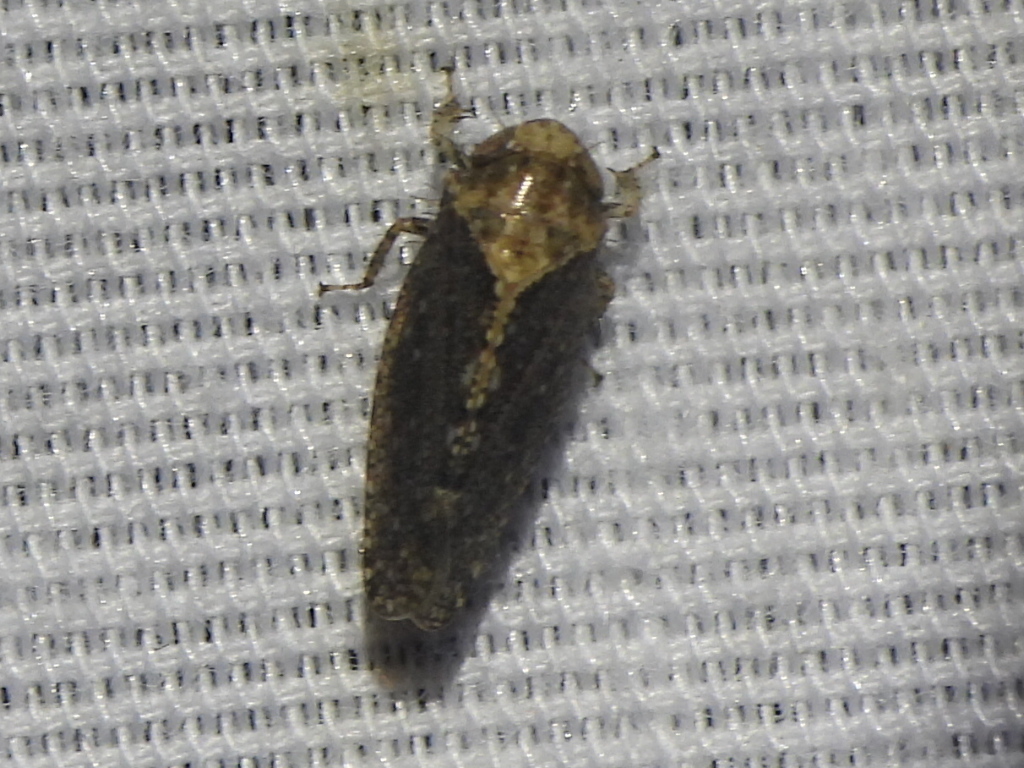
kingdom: Animalia
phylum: Arthropoda
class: Insecta
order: Hemiptera
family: Cicadellidae
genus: Excultanus
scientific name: Excultanus excultus
